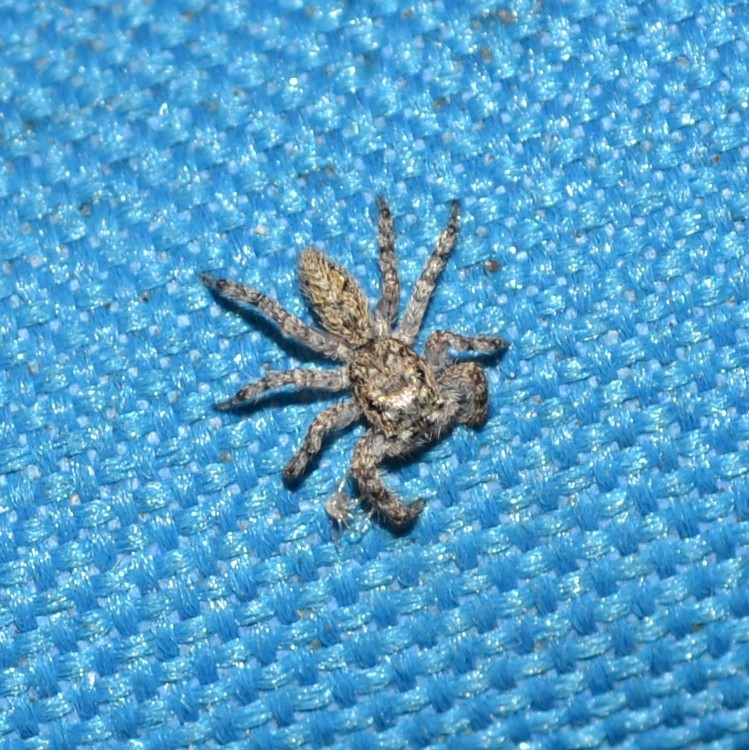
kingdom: Animalia
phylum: Arthropoda
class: Arachnida
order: Araneae
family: Salticidae
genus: Platycryptus
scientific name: Platycryptus undatus
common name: Tan jumping spider
